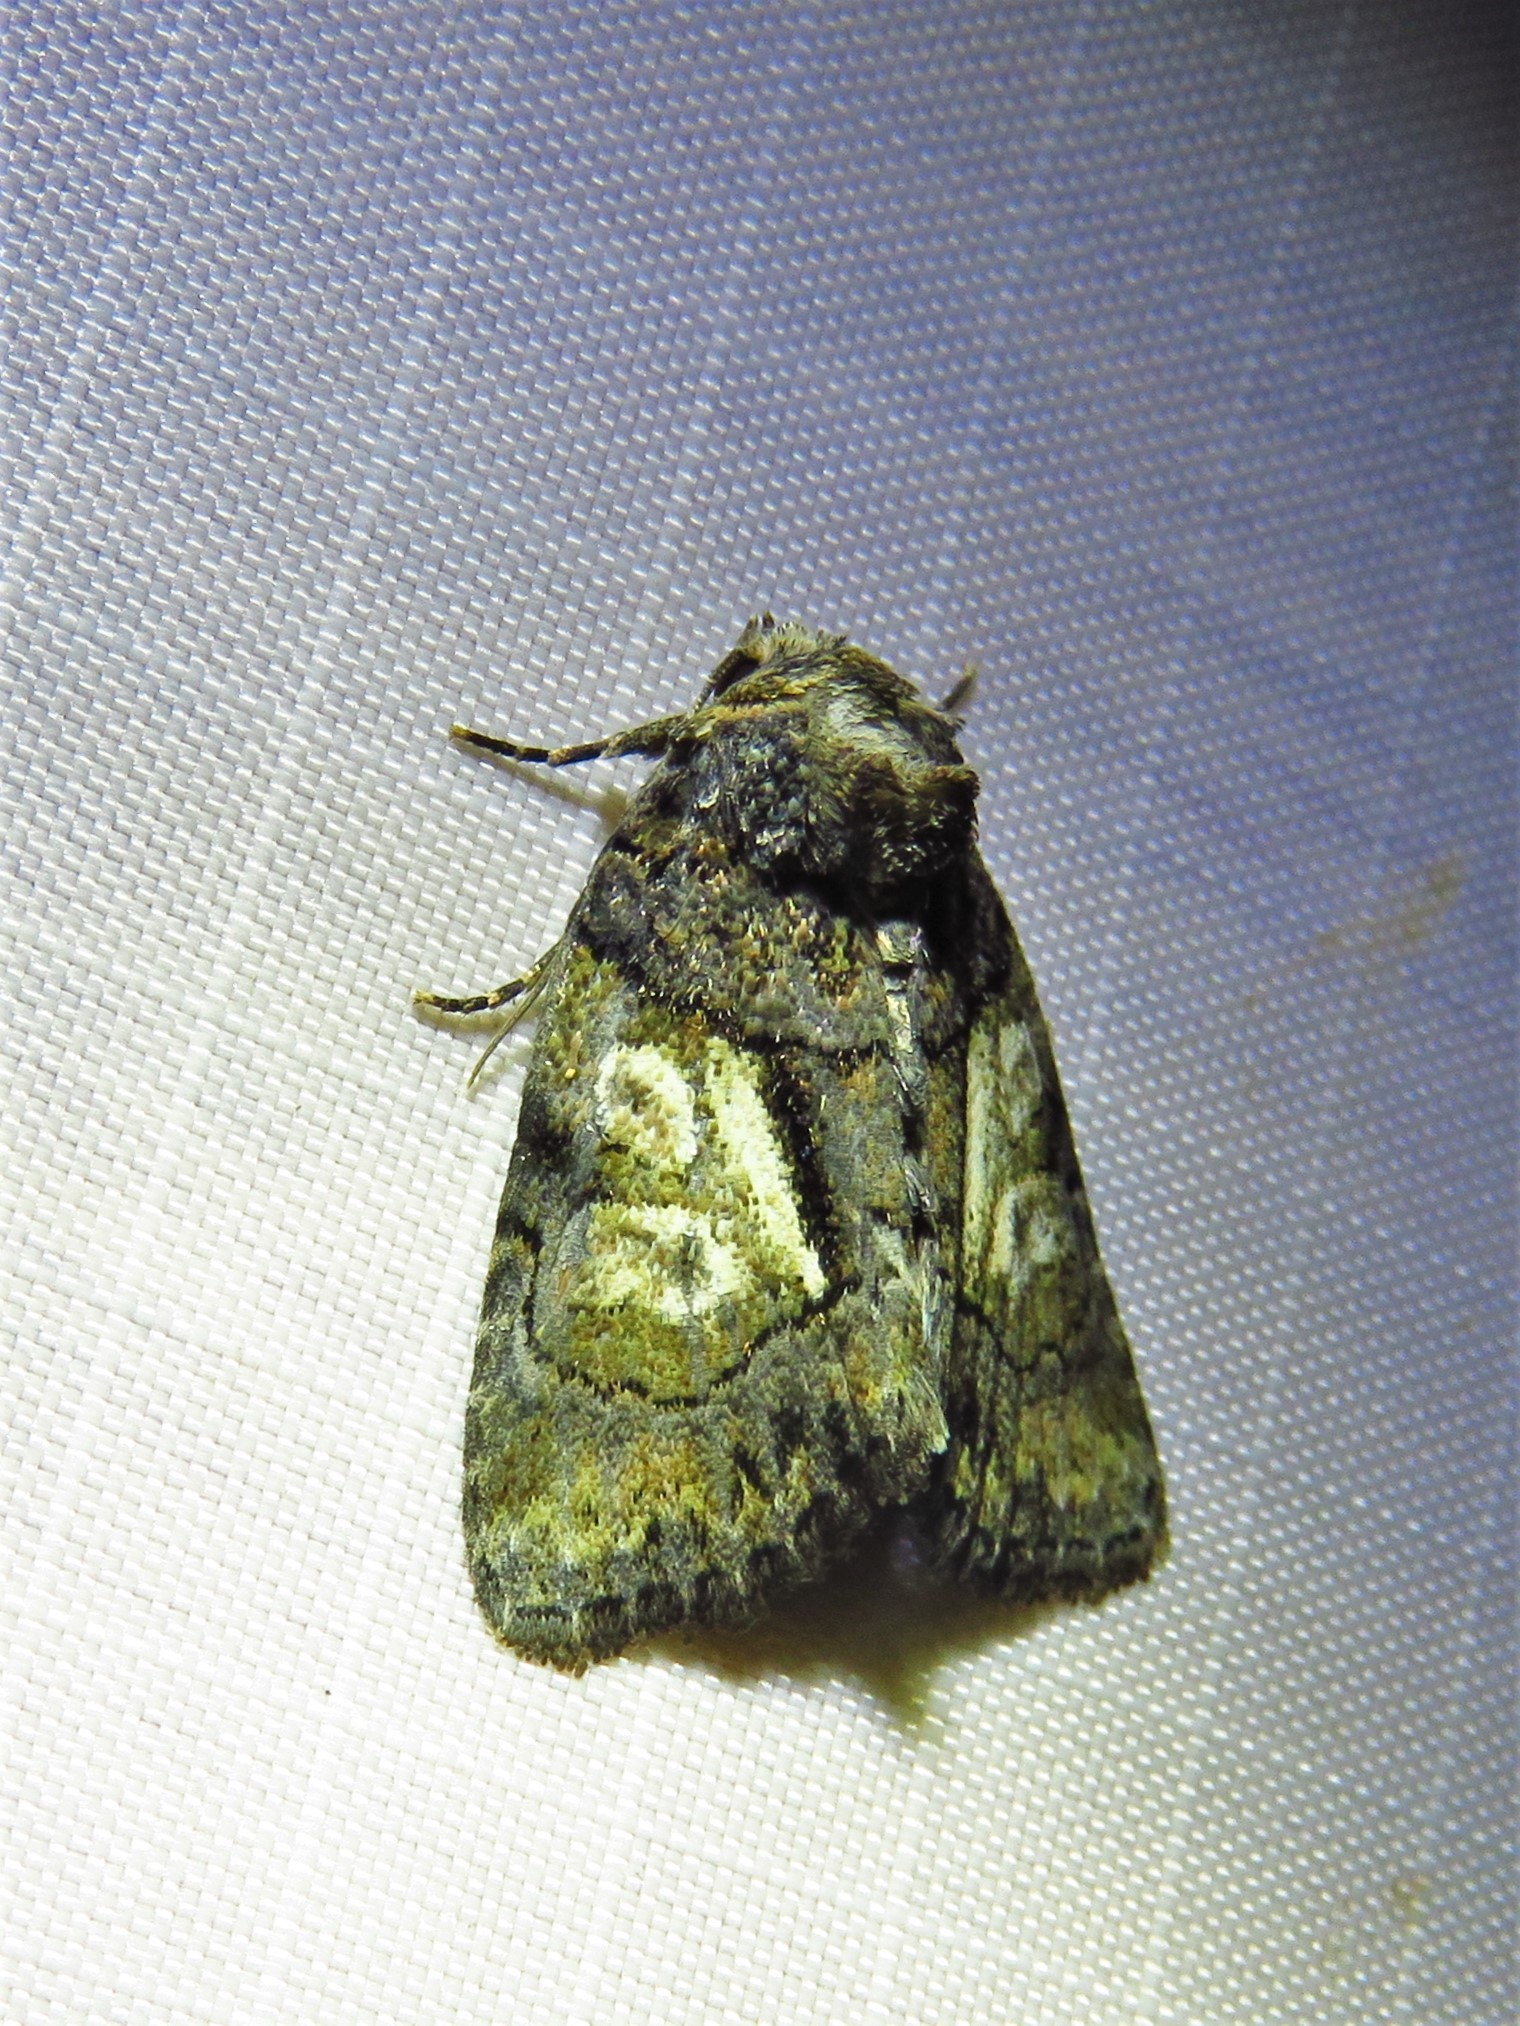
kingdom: Animalia
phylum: Arthropoda
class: Insecta
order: Lepidoptera
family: Noctuidae
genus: Chytonix
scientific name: Chytonix palliatricula
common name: Cloaked marvel
